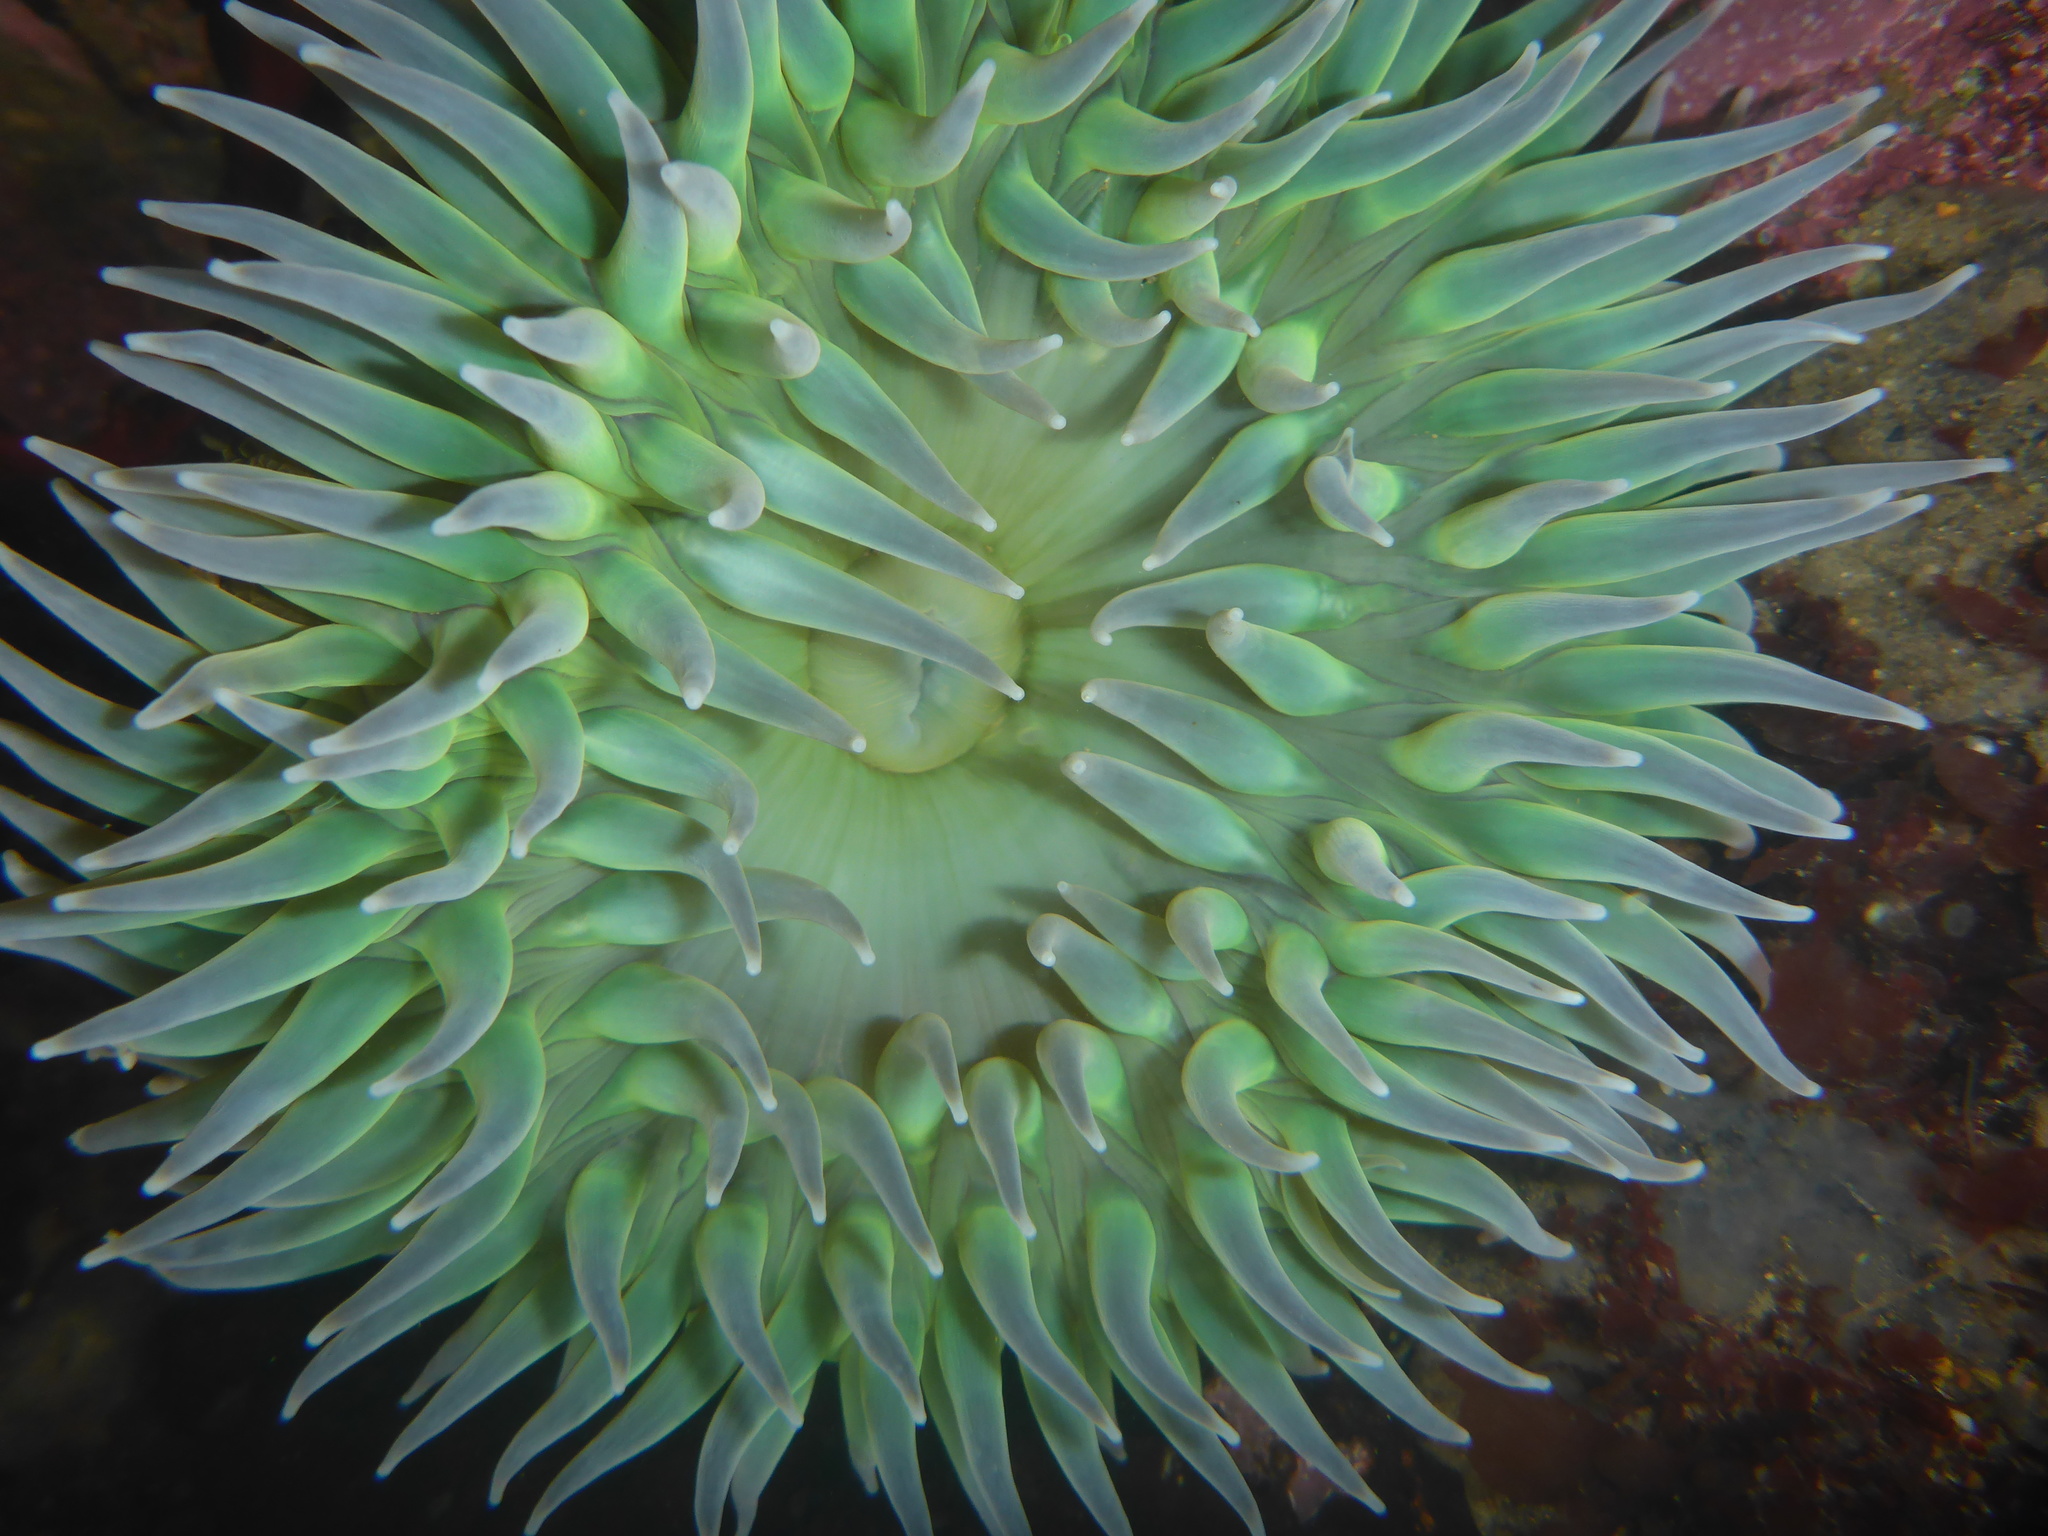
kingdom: Animalia
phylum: Cnidaria
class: Anthozoa
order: Actiniaria
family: Actiniidae
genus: Anthopleura
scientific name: Anthopleura xanthogrammica
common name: Giant green anemone
